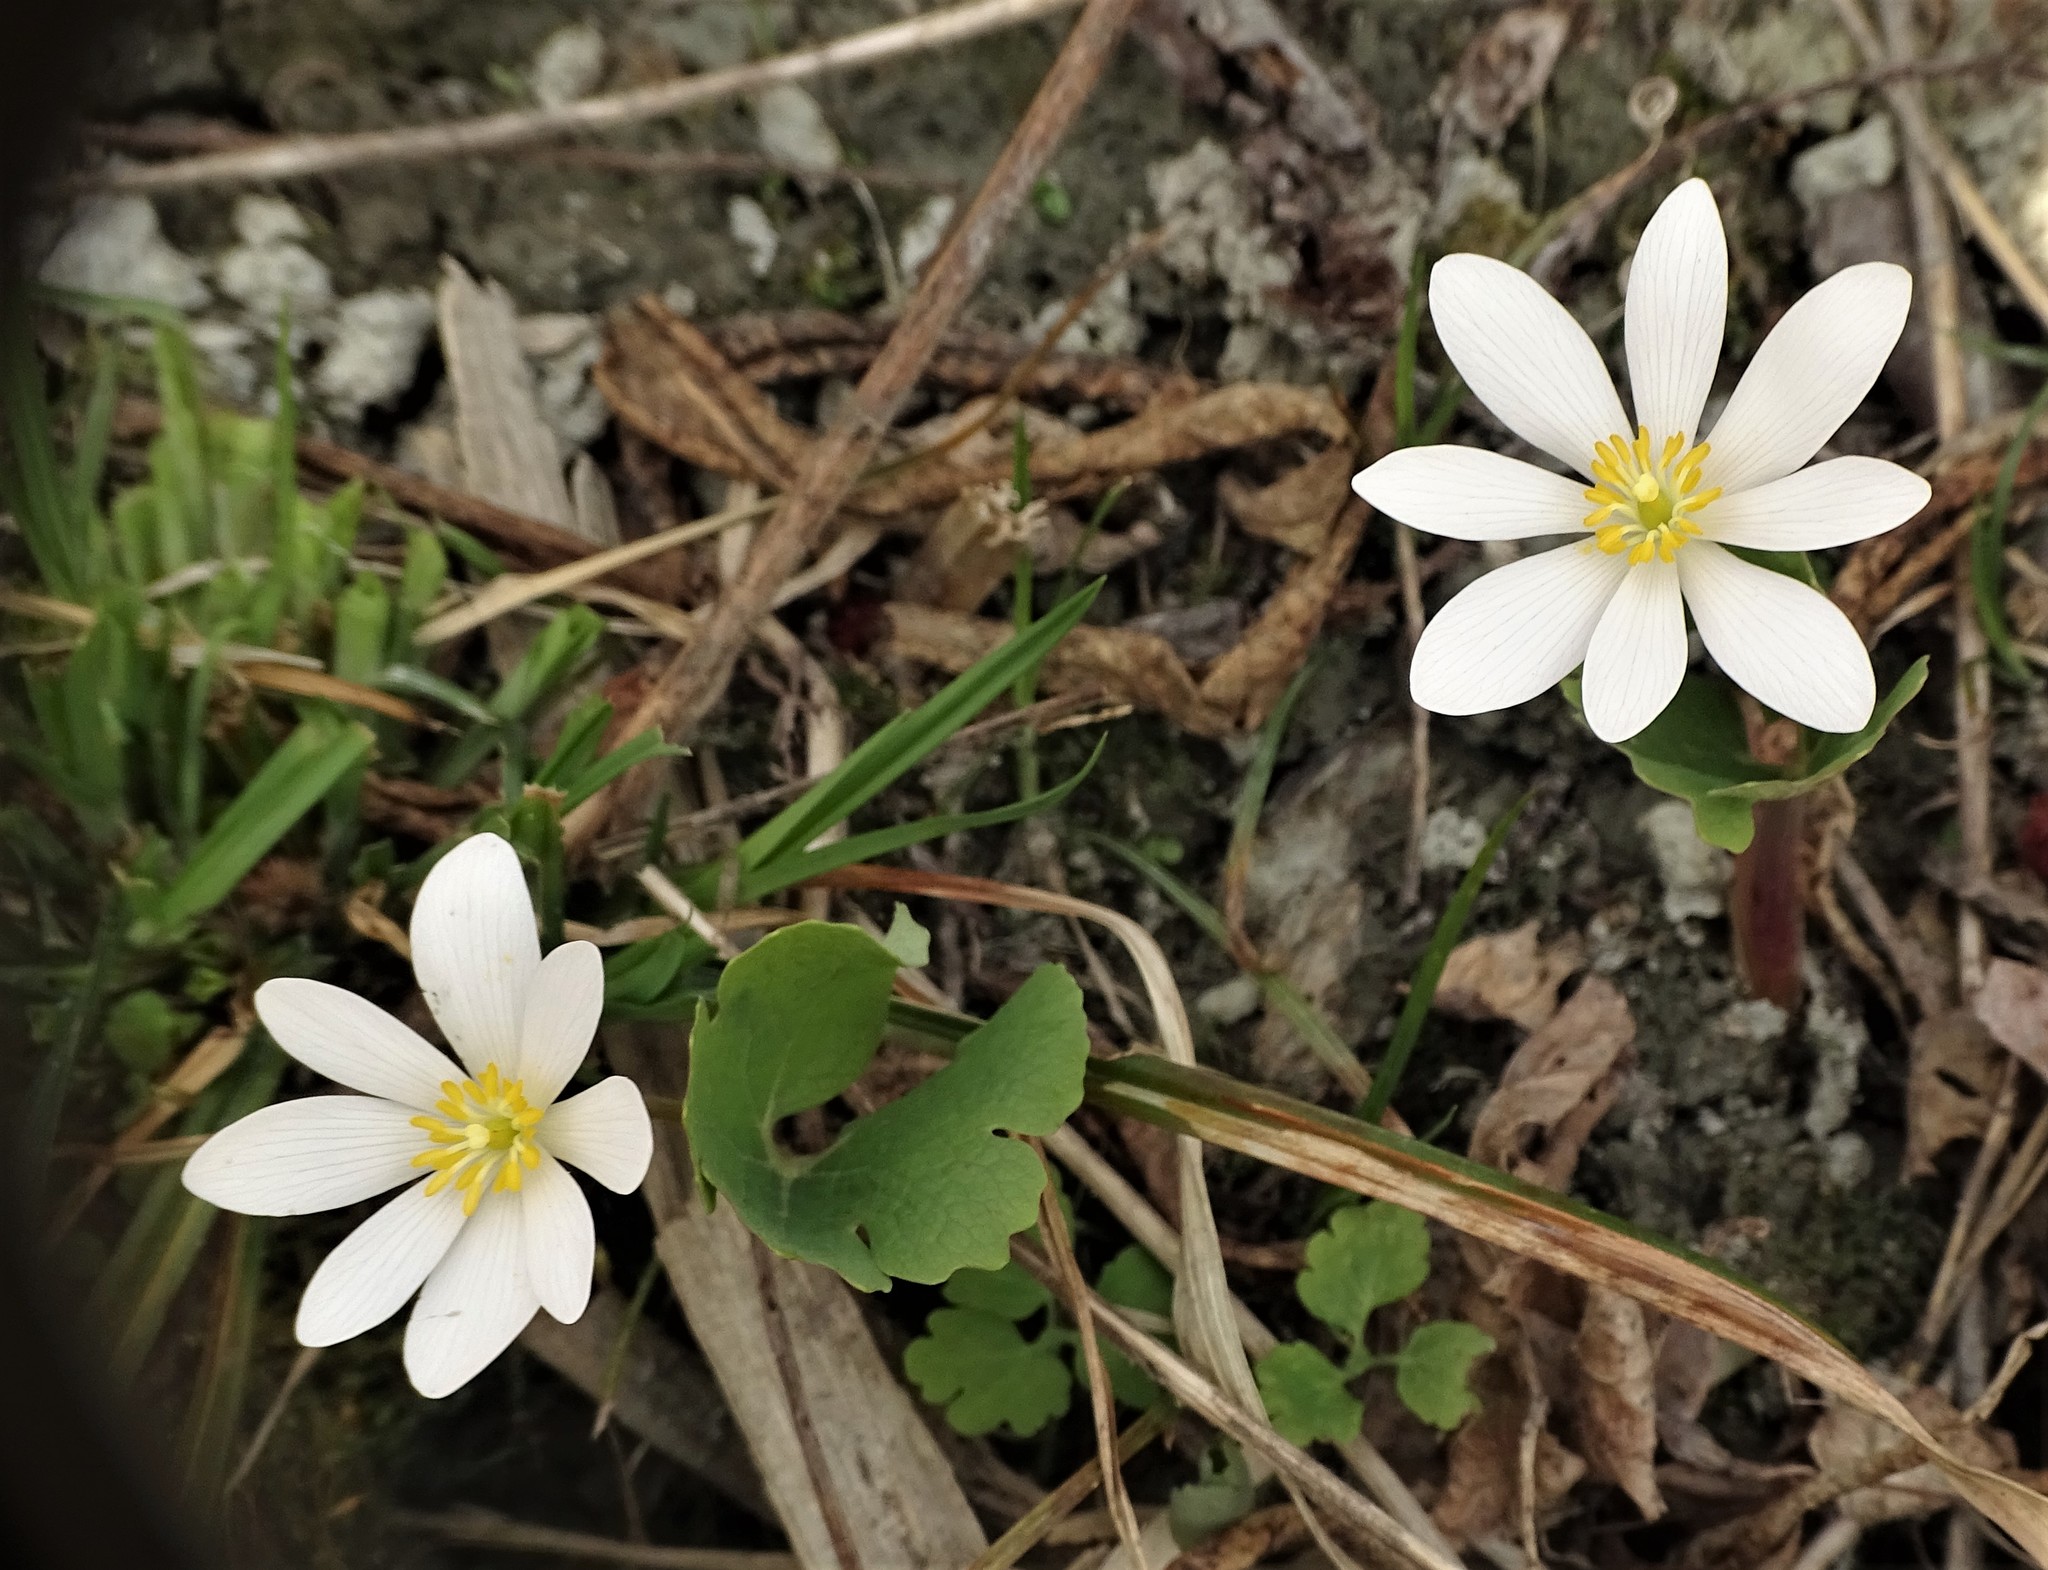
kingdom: Plantae
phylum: Tracheophyta
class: Magnoliopsida
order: Ranunculales
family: Papaveraceae
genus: Sanguinaria
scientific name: Sanguinaria canadensis
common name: Bloodroot
